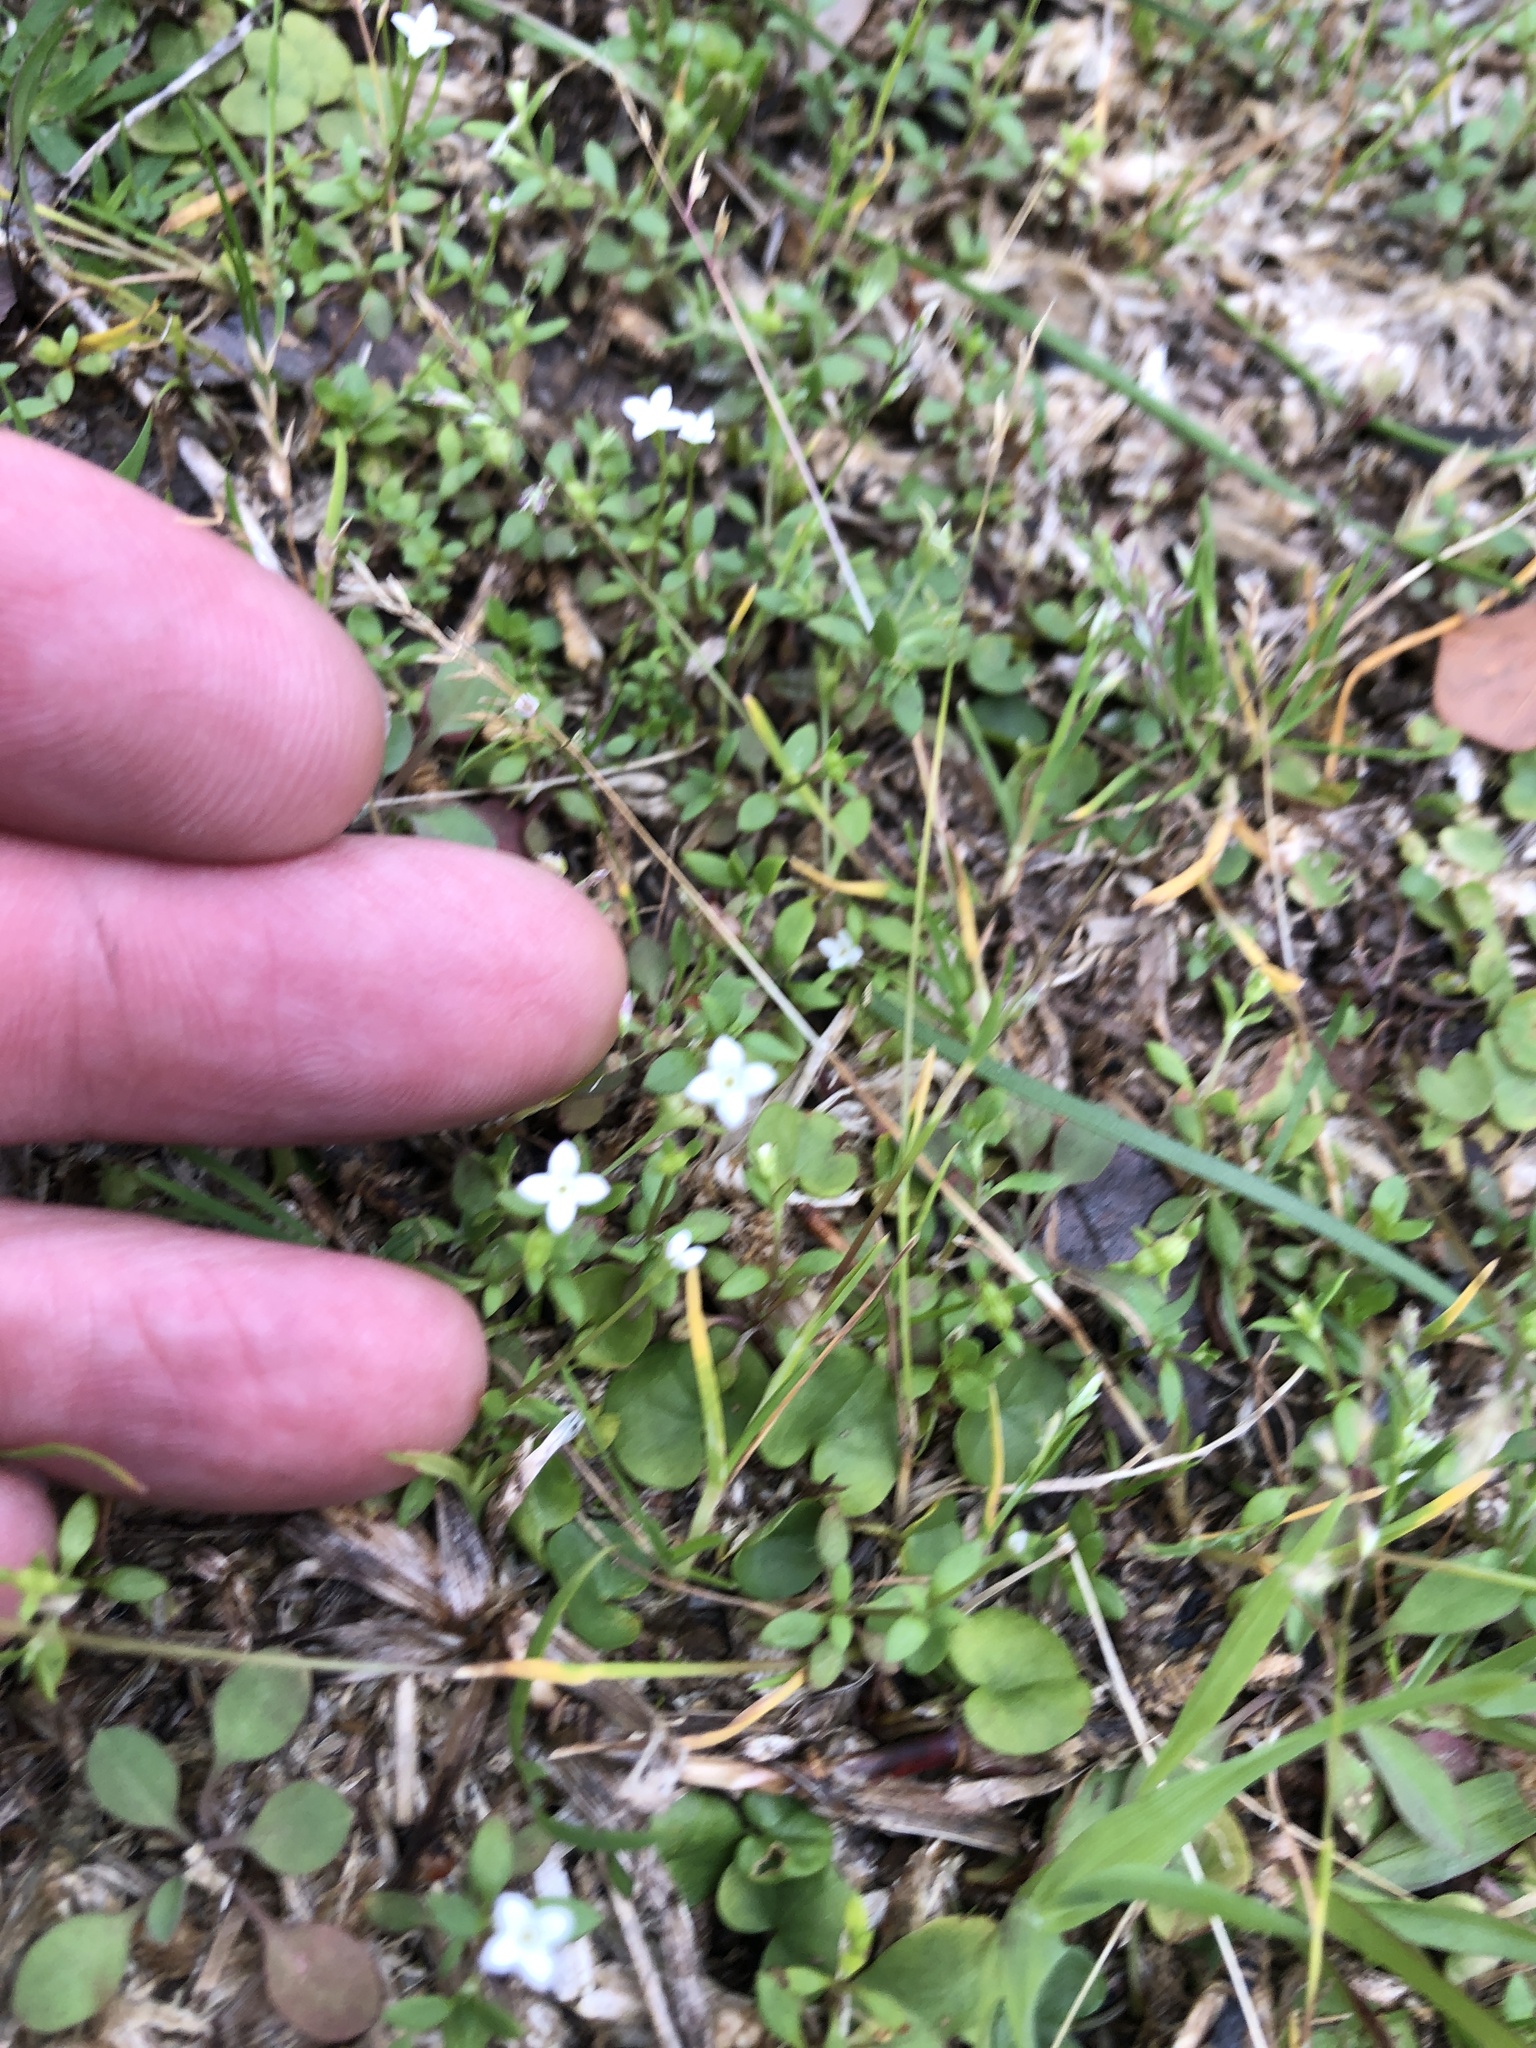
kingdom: Plantae
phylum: Tracheophyta
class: Magnoliopsida
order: Gentianales
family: Rubiaceae
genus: Houstonia
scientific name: Houstonia micrantha
